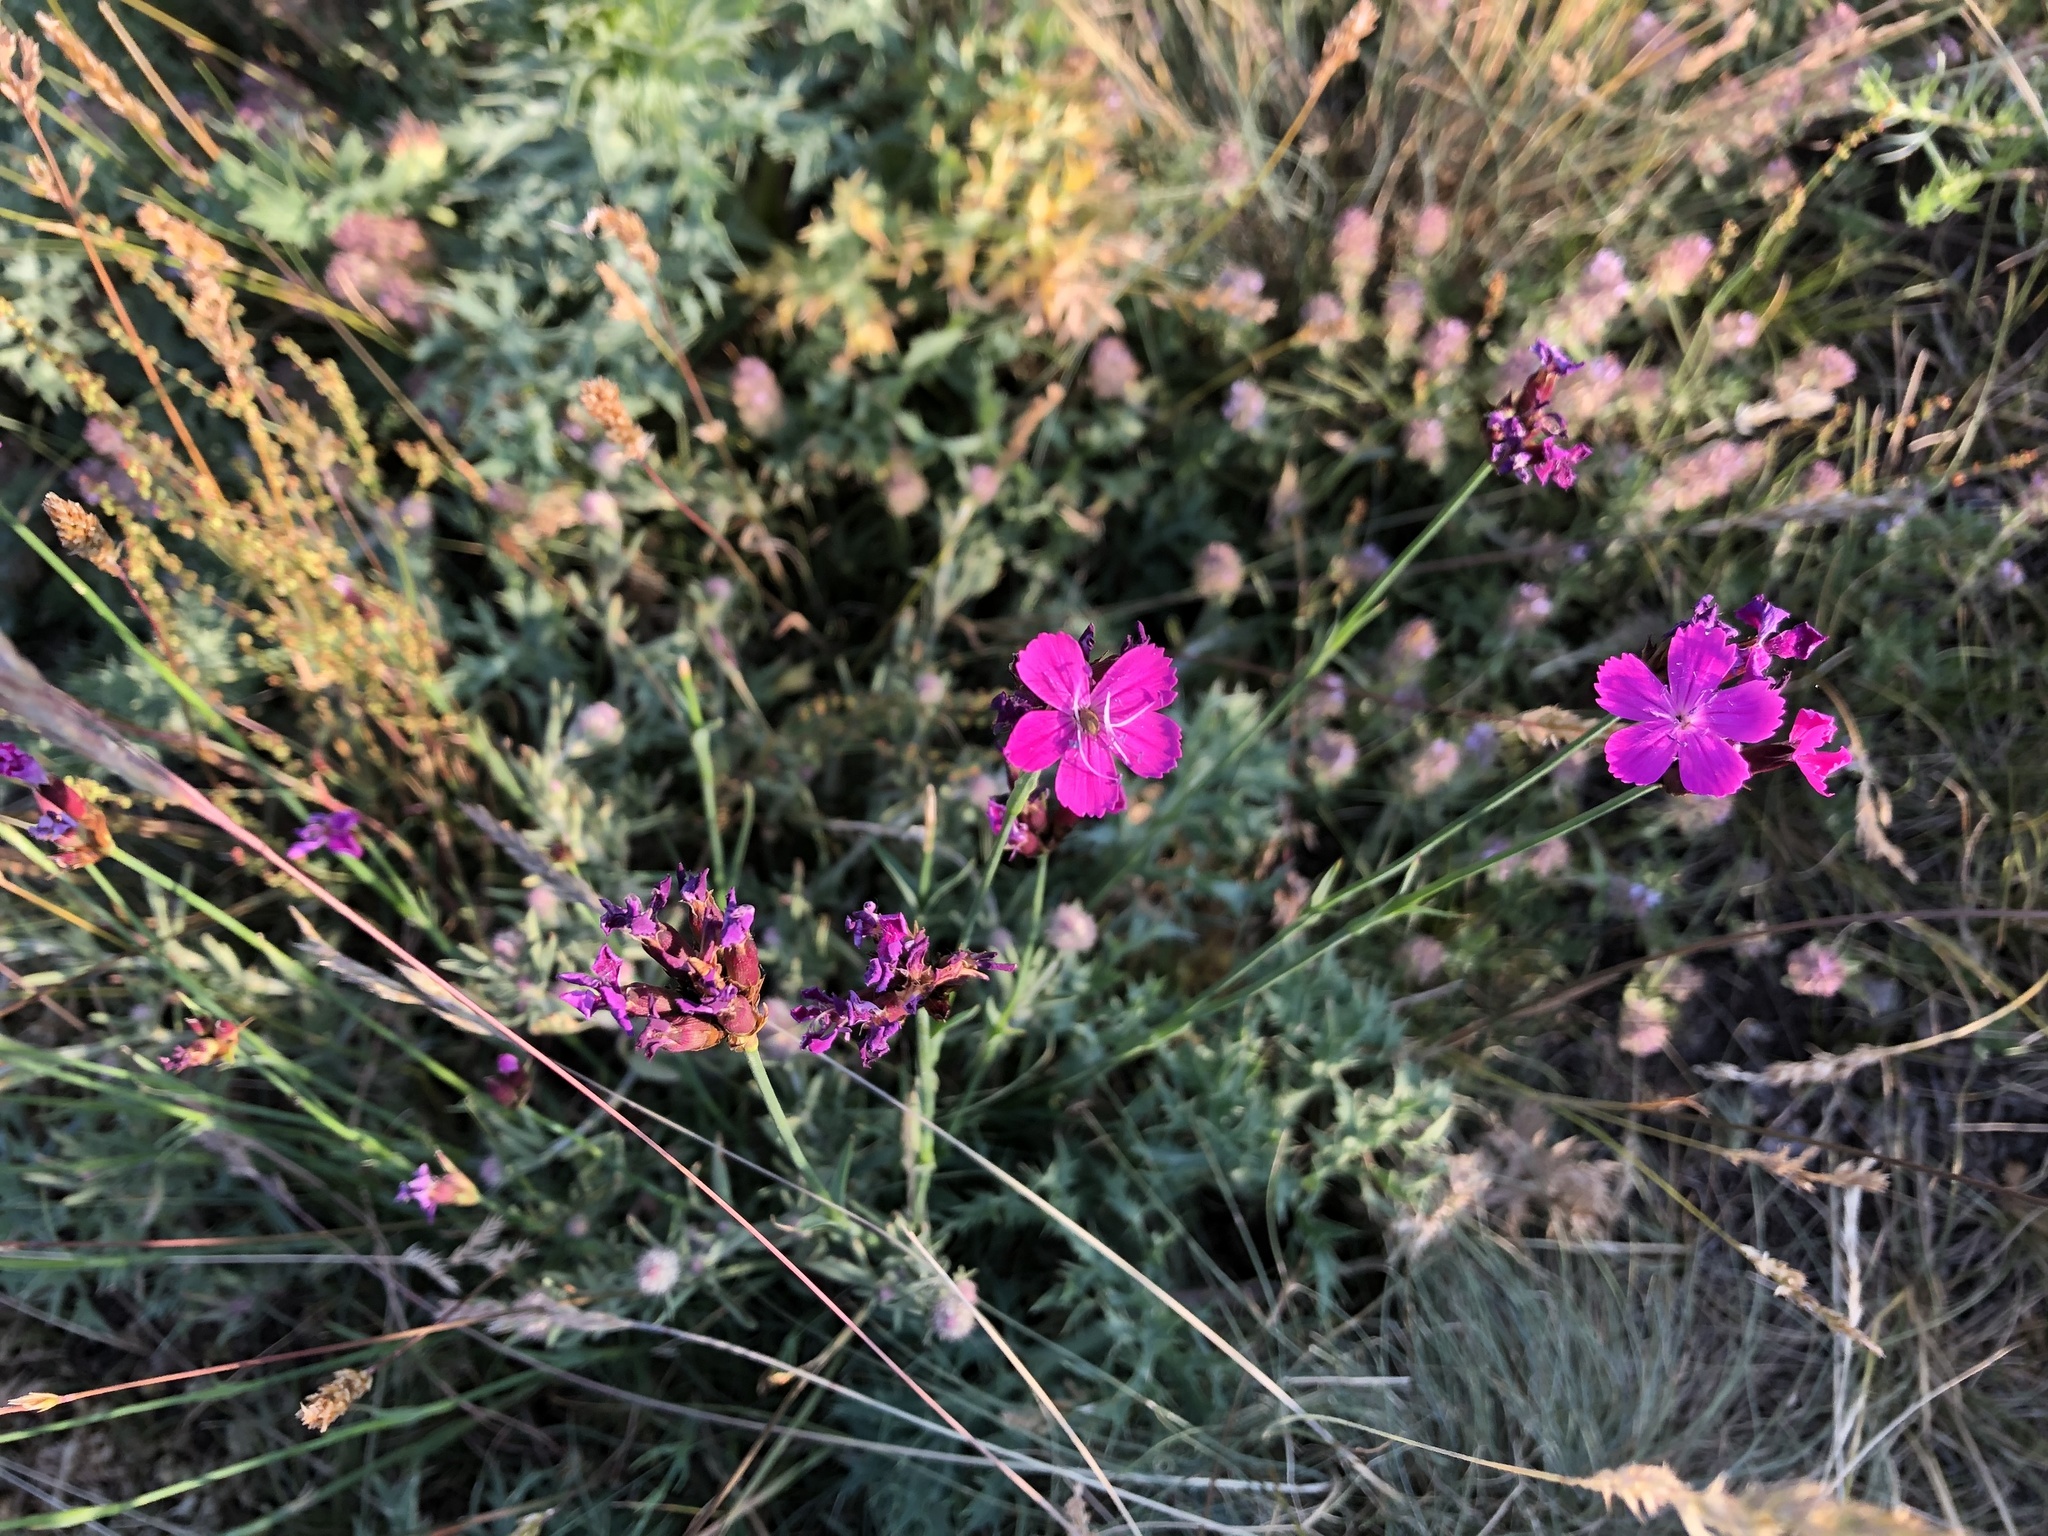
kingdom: Plantae
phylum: Tracheophyta
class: Magnoliopsida
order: Caryophyllales
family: Caryophyllaceae
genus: Dianthus
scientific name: Dianthus carthusianorum
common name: Carthusian pink
